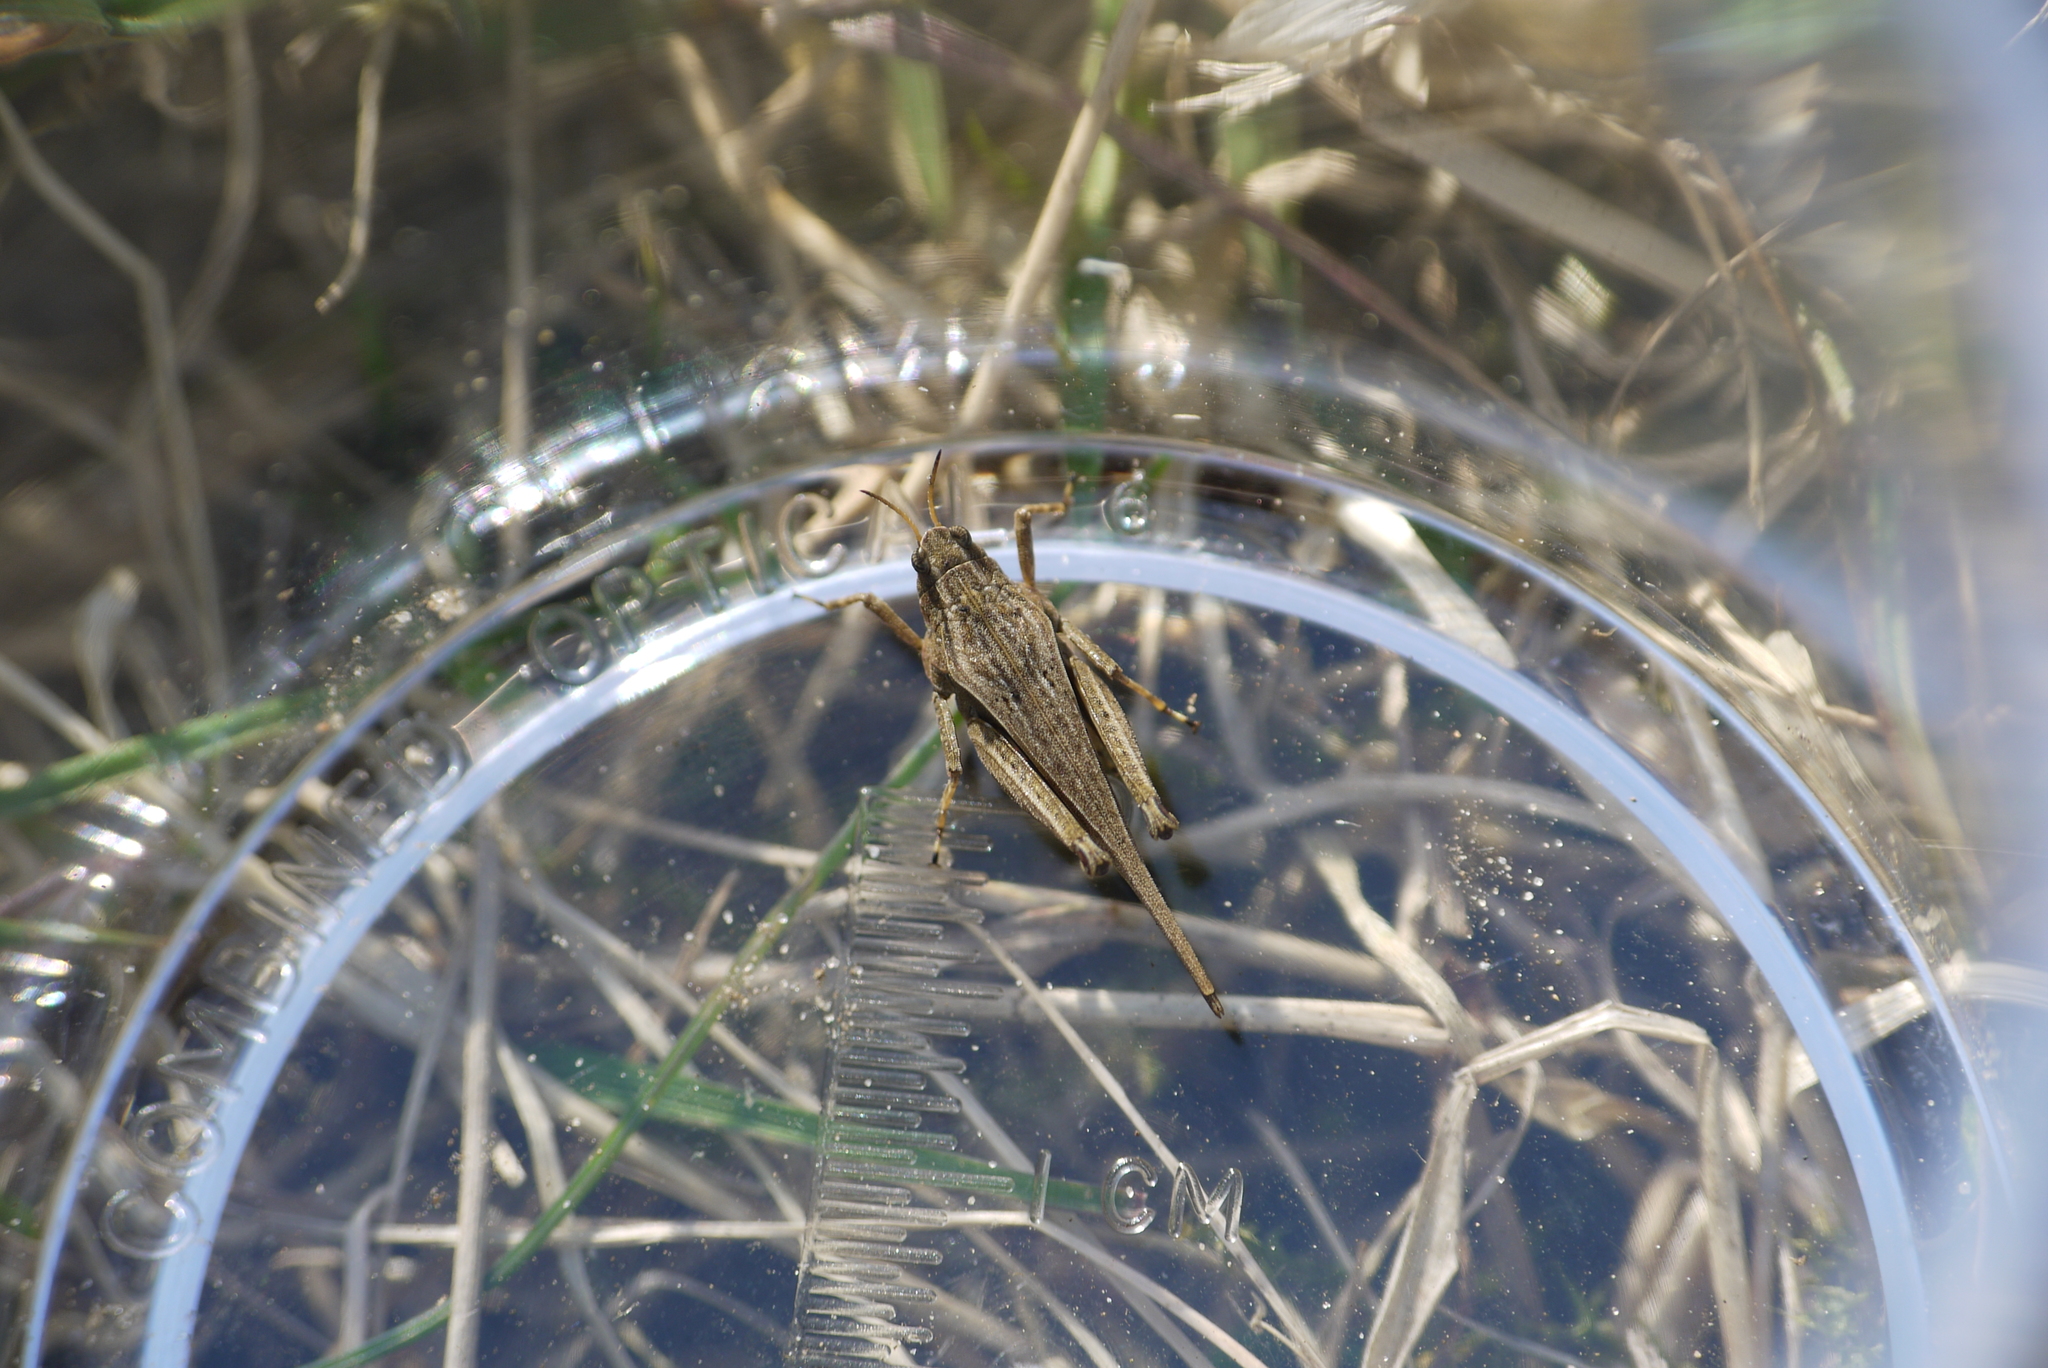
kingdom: Animalia
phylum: Arthropoda
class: Insecta
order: Orthoptera
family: Tetrigidae
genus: Tetrix
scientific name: Tetrix subulata
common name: Slender ground-hopper
